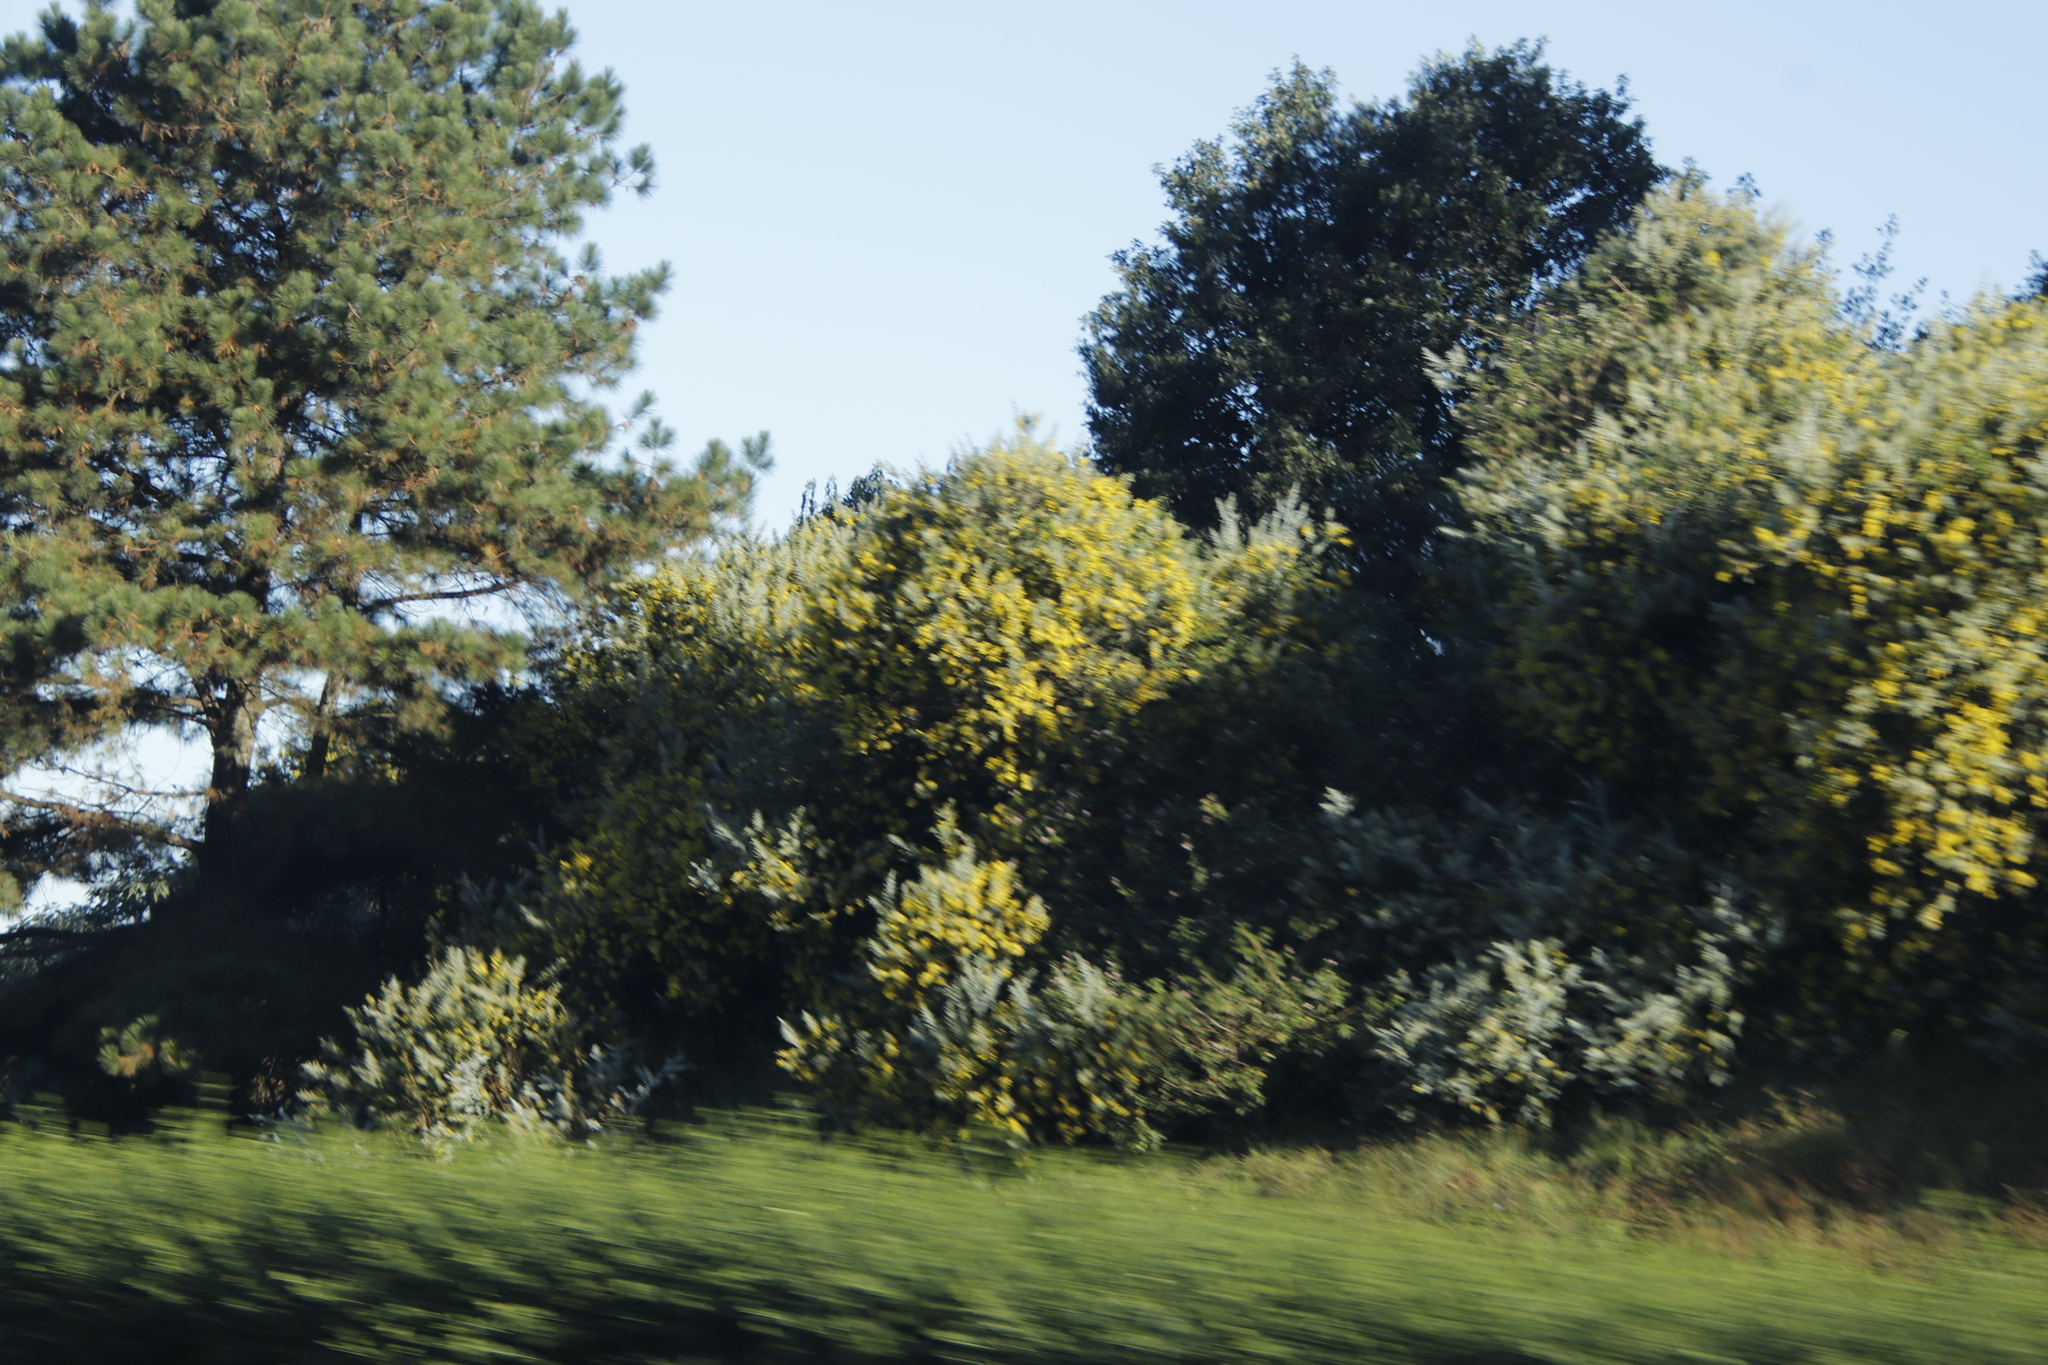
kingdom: Plantae
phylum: Tracheophyta
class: Magnoliopsida
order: Fabales
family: Fabaceae
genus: Acacia
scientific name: Acacia podalyriifolia
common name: Pearl wattle
